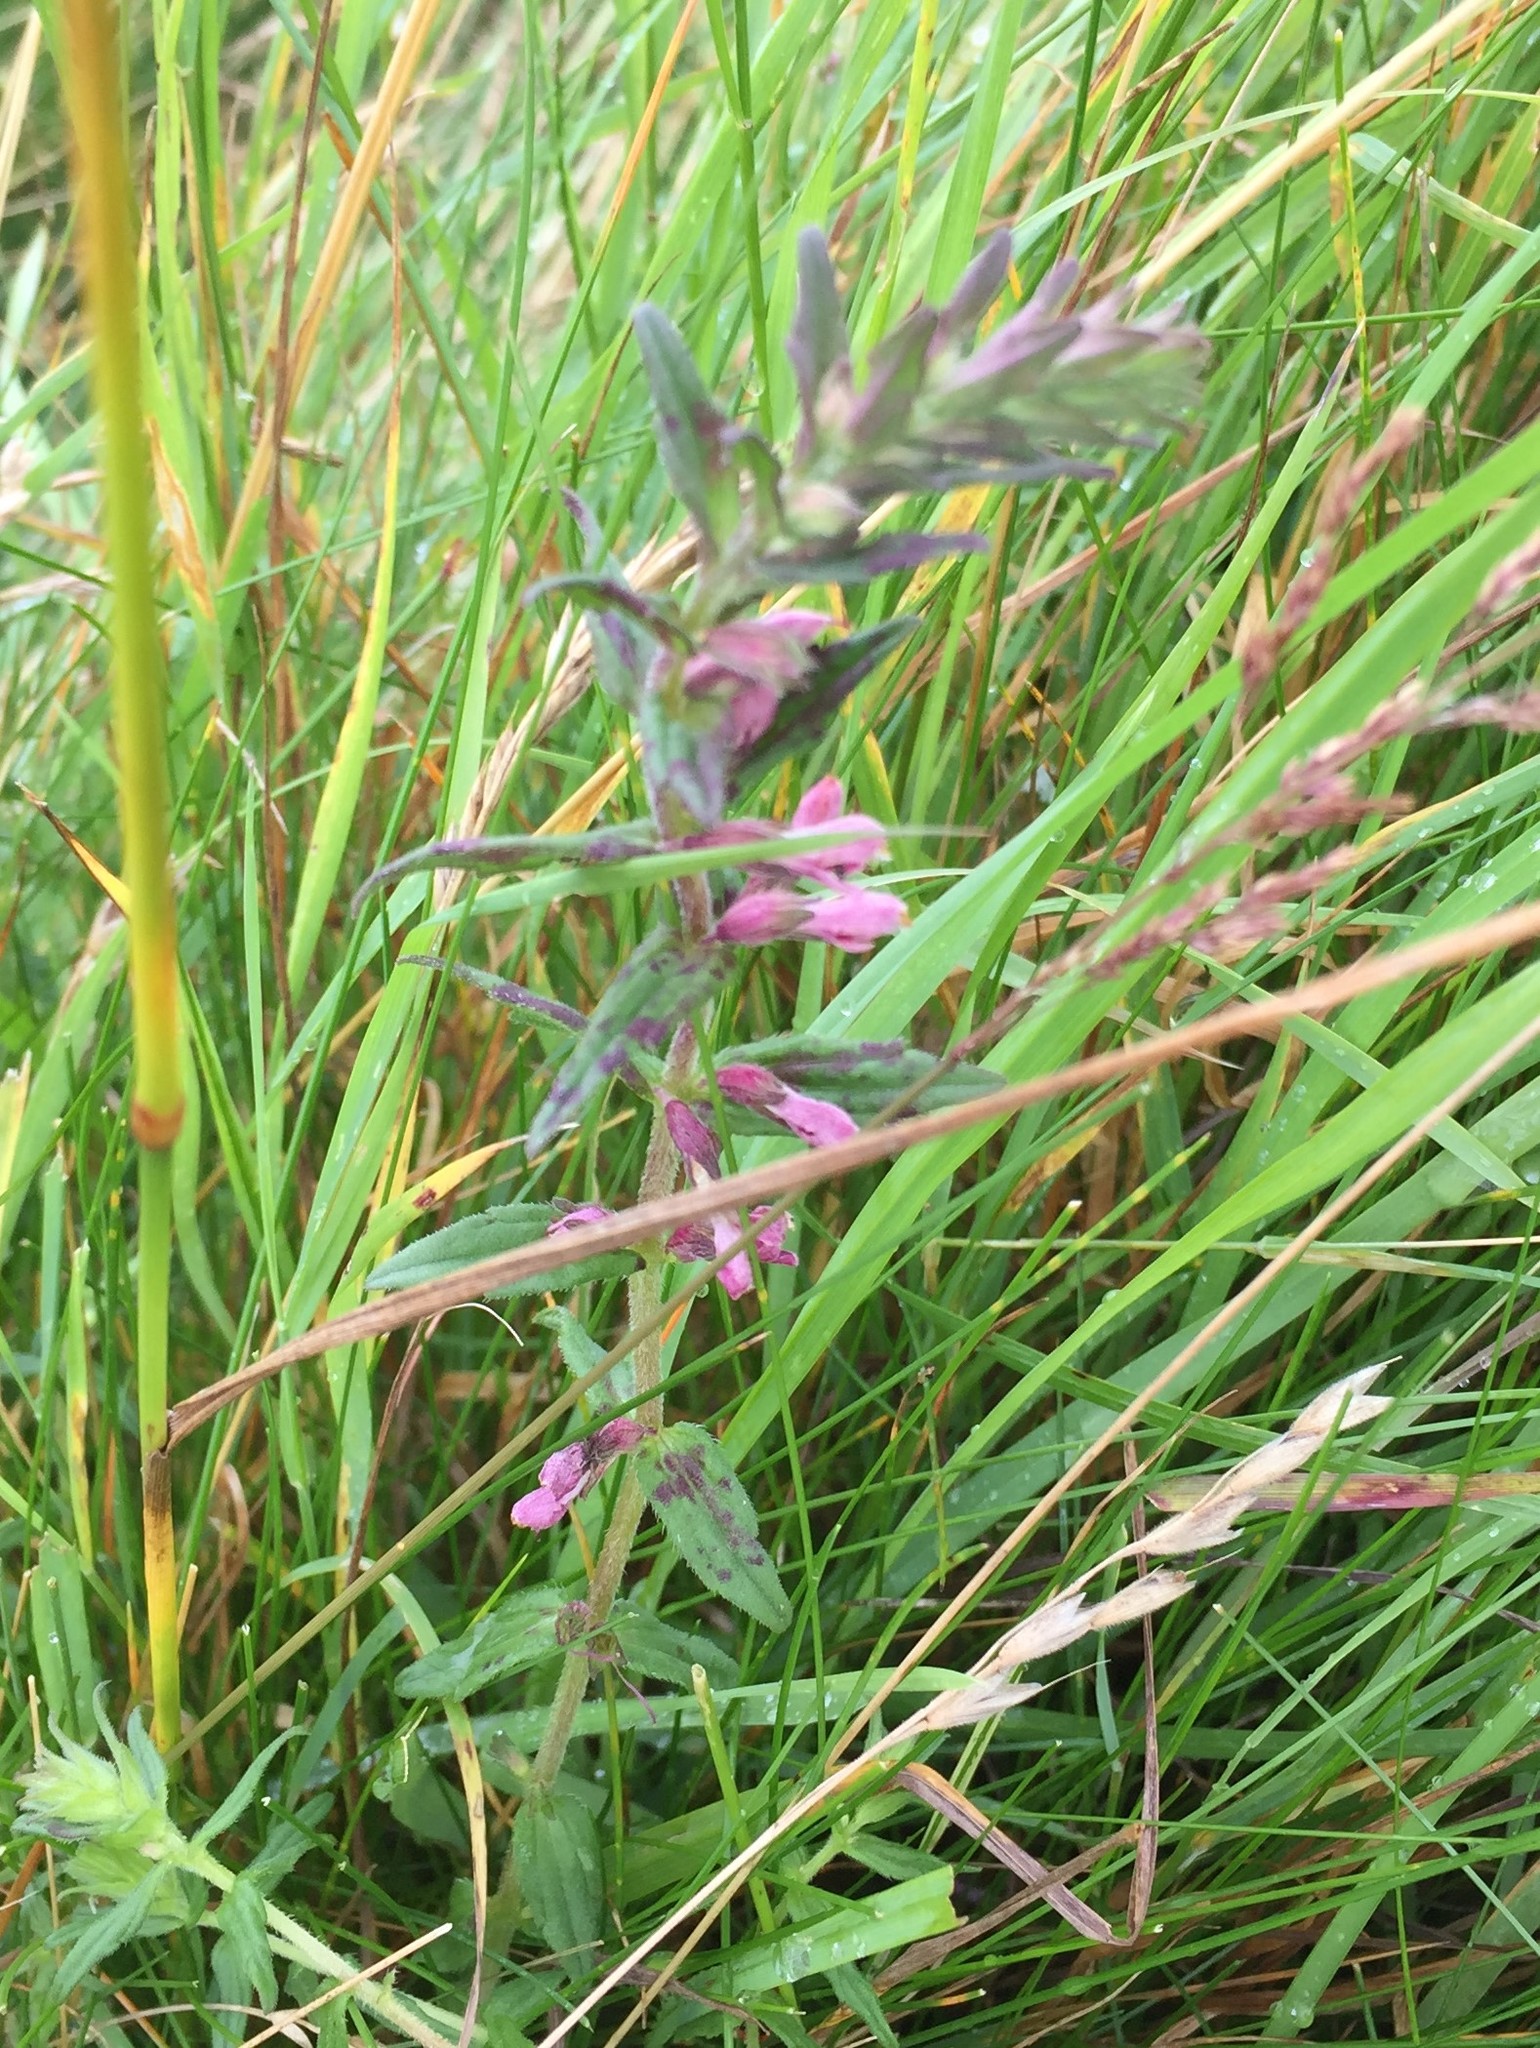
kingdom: Plantae
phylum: Tracheophyta
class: Magnoliopsida
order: Lamiales
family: Orobanchaceae
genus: Odontites
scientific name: Odontites vulgaris
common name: Broomrape
